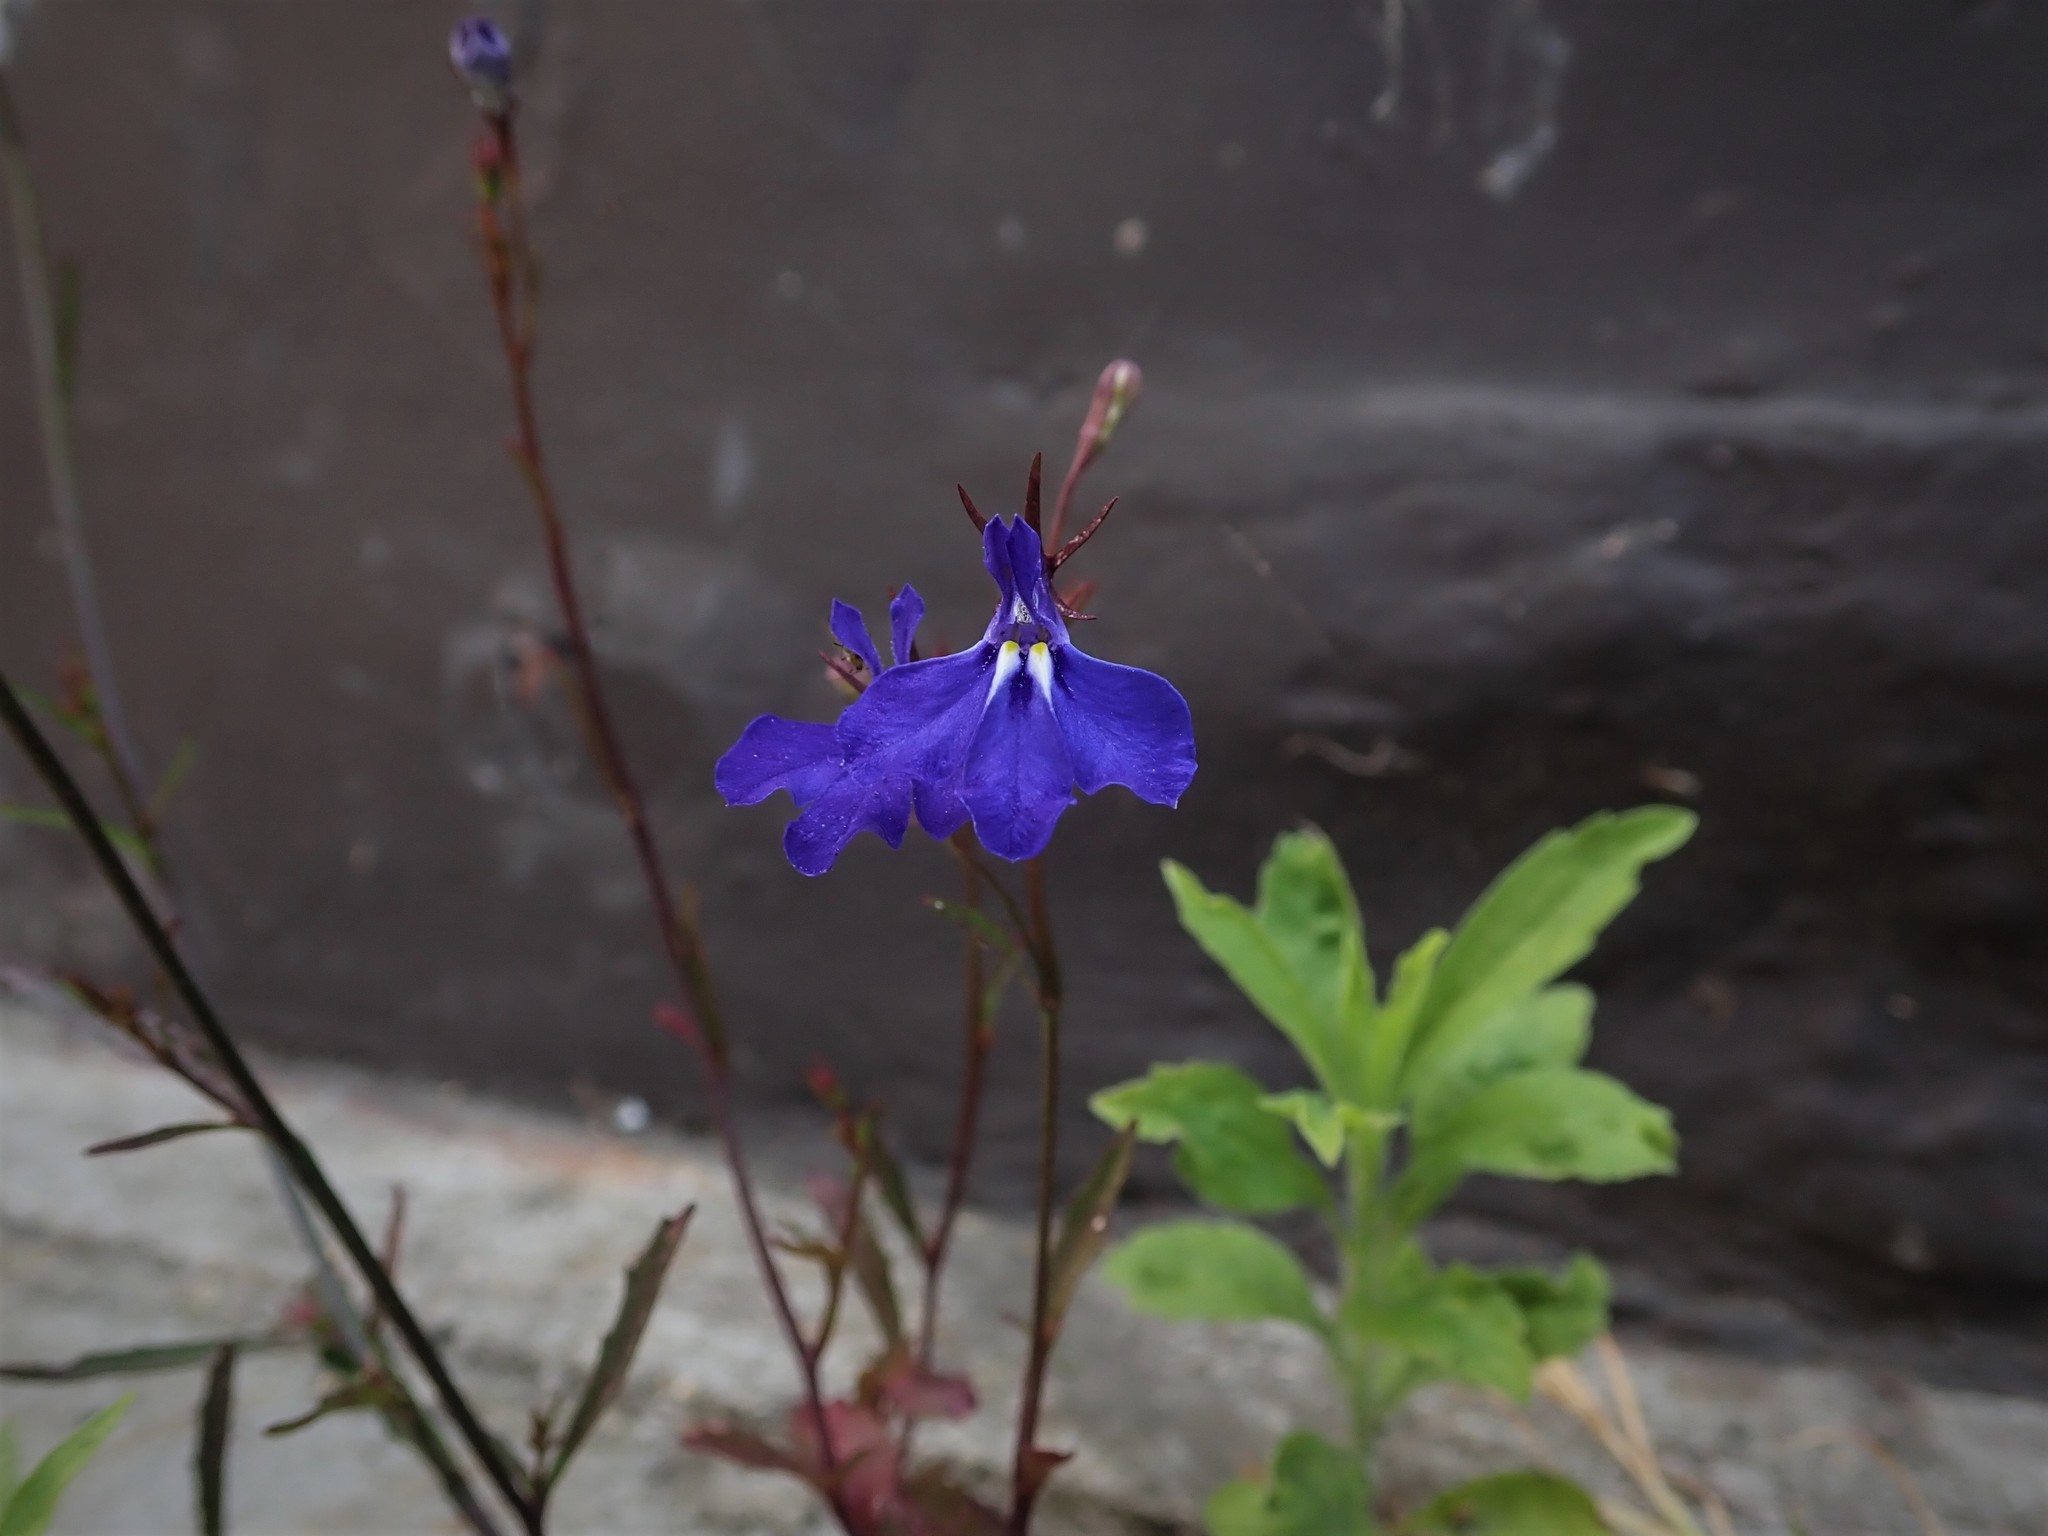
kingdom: Plantae
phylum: Tracheophyta
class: Magnoliopsida
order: Asterales
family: Campanulaceae
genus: Lobelia
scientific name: Lobelia erinus
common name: Edging lobelia
